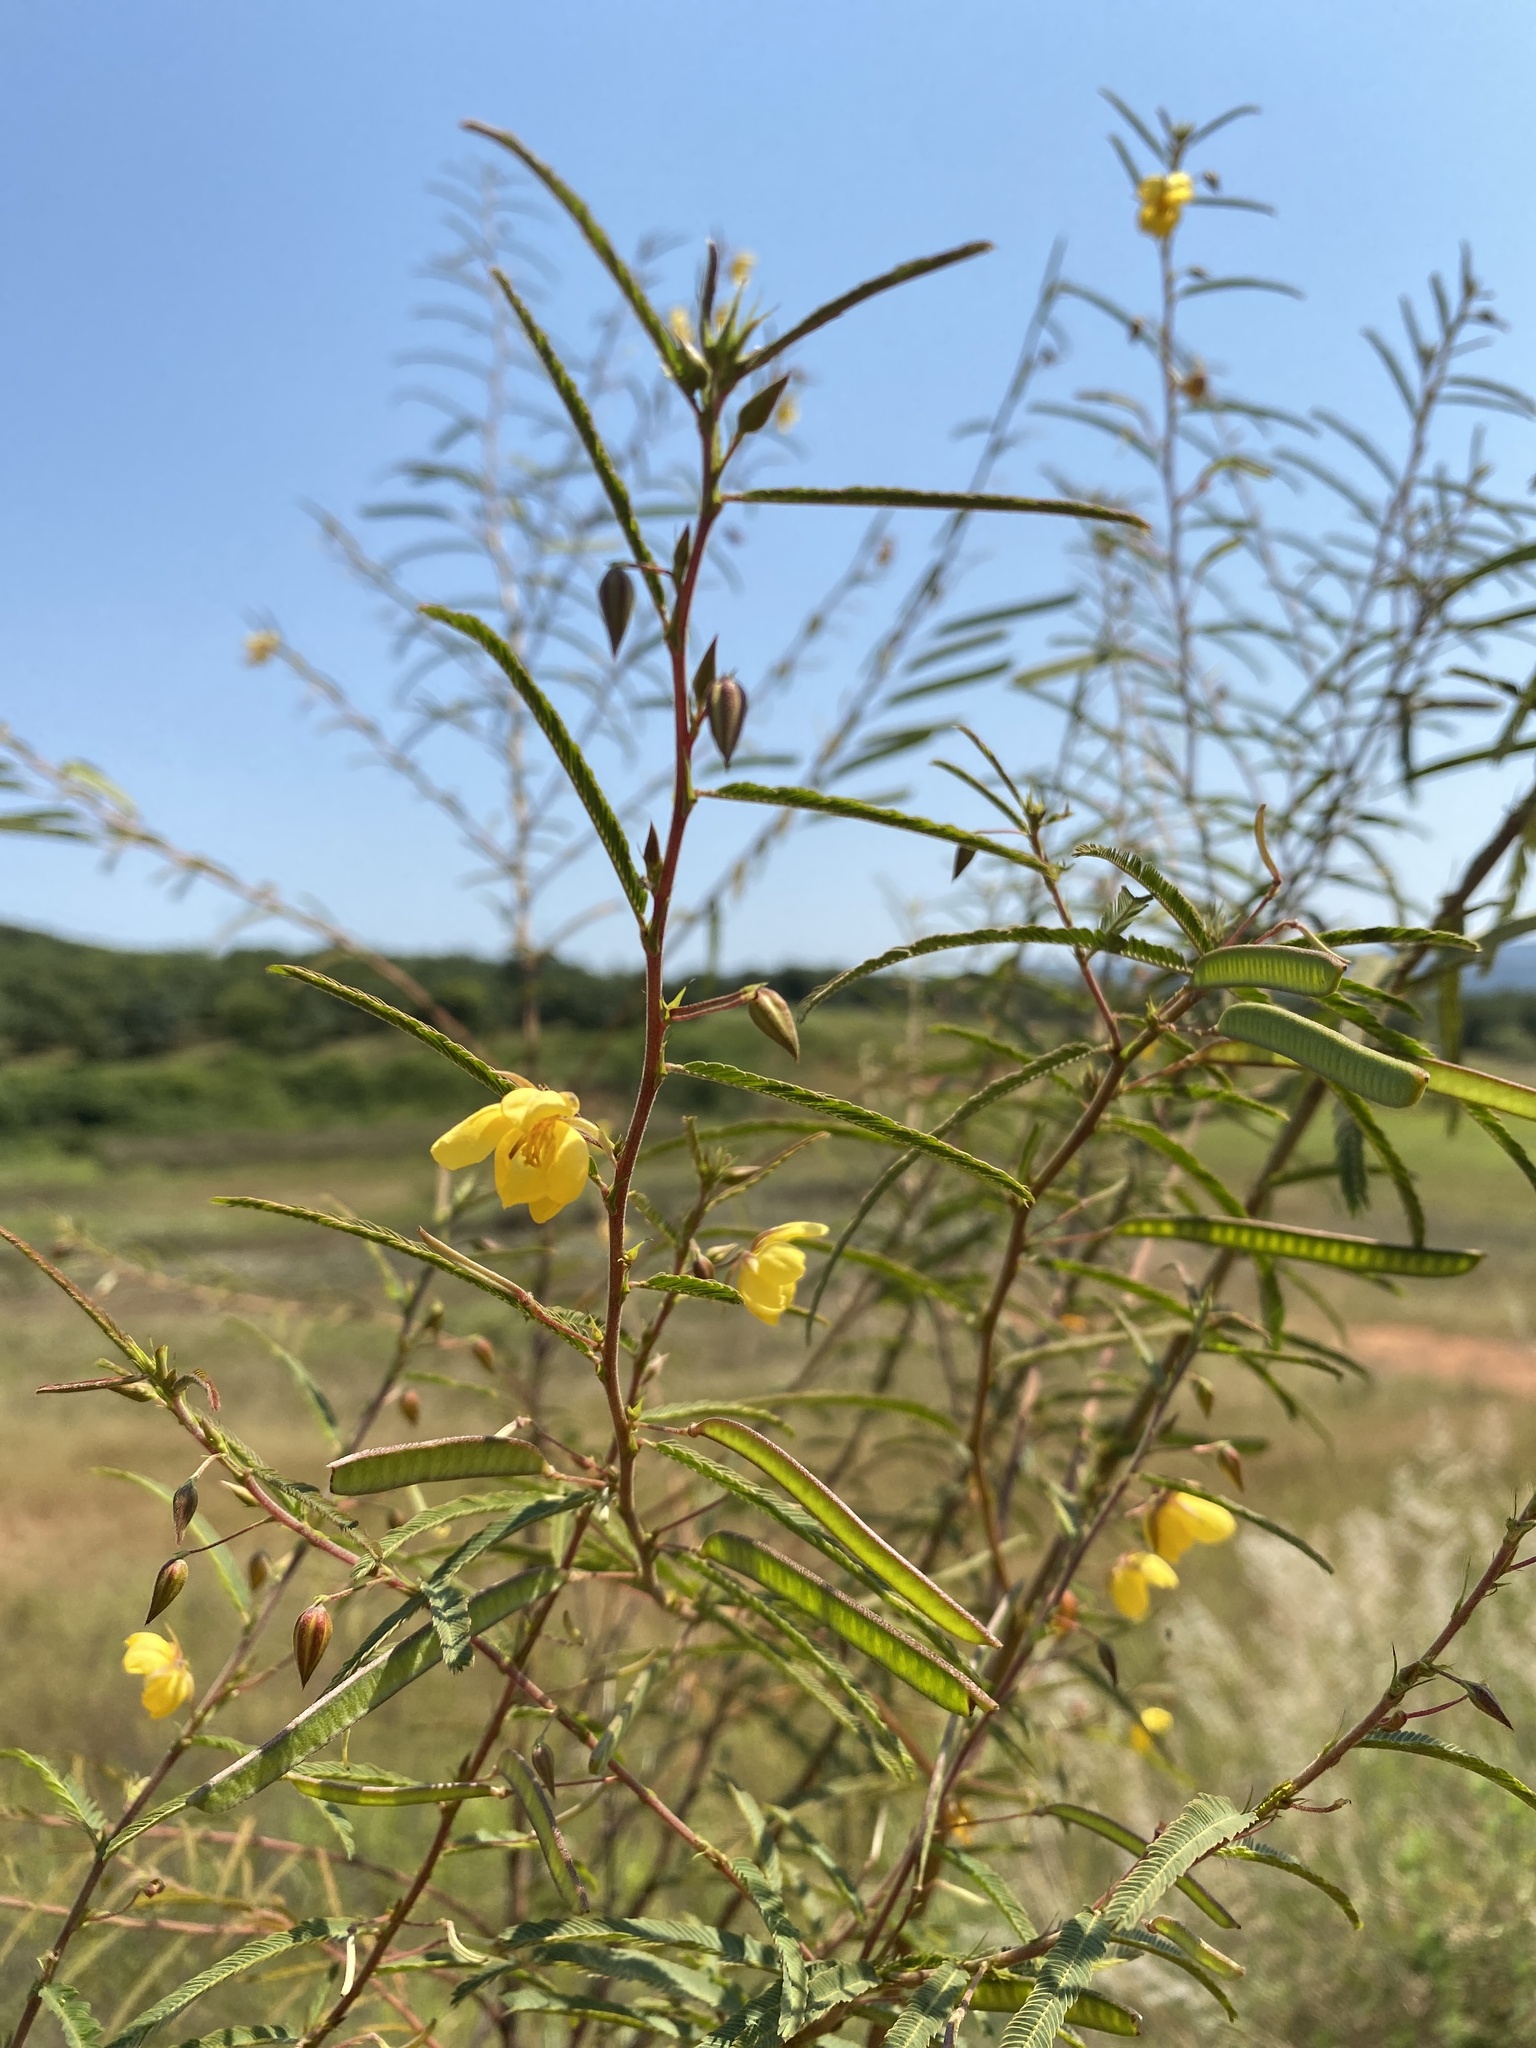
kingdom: Plantae
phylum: Tracheophyta
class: Magnoliopsida
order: Fabales
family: Fabaceae
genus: Chamaecrista
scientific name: Chamaecrista mimosoides
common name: Fish-bone cassia
